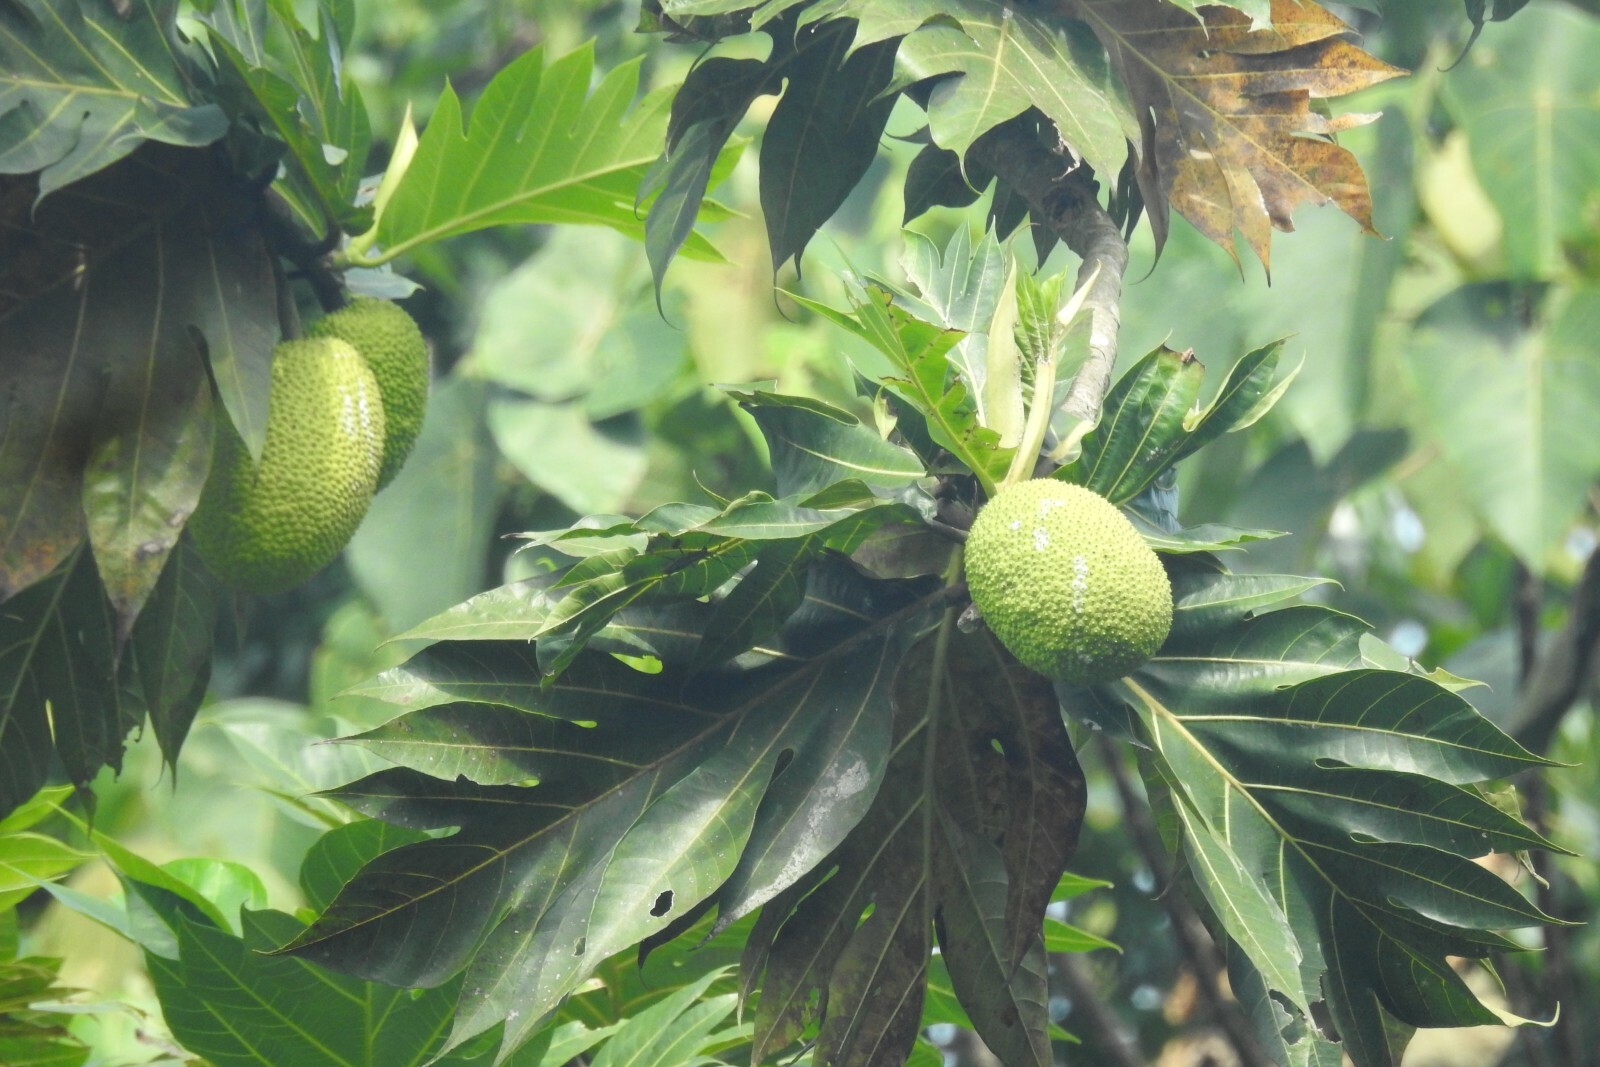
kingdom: Plantae
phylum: Tracheophyta
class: Magnoliopsida
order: Rosales
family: Moraceae
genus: Artocarpus
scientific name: Artocarpus altilis
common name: Breadfruit
